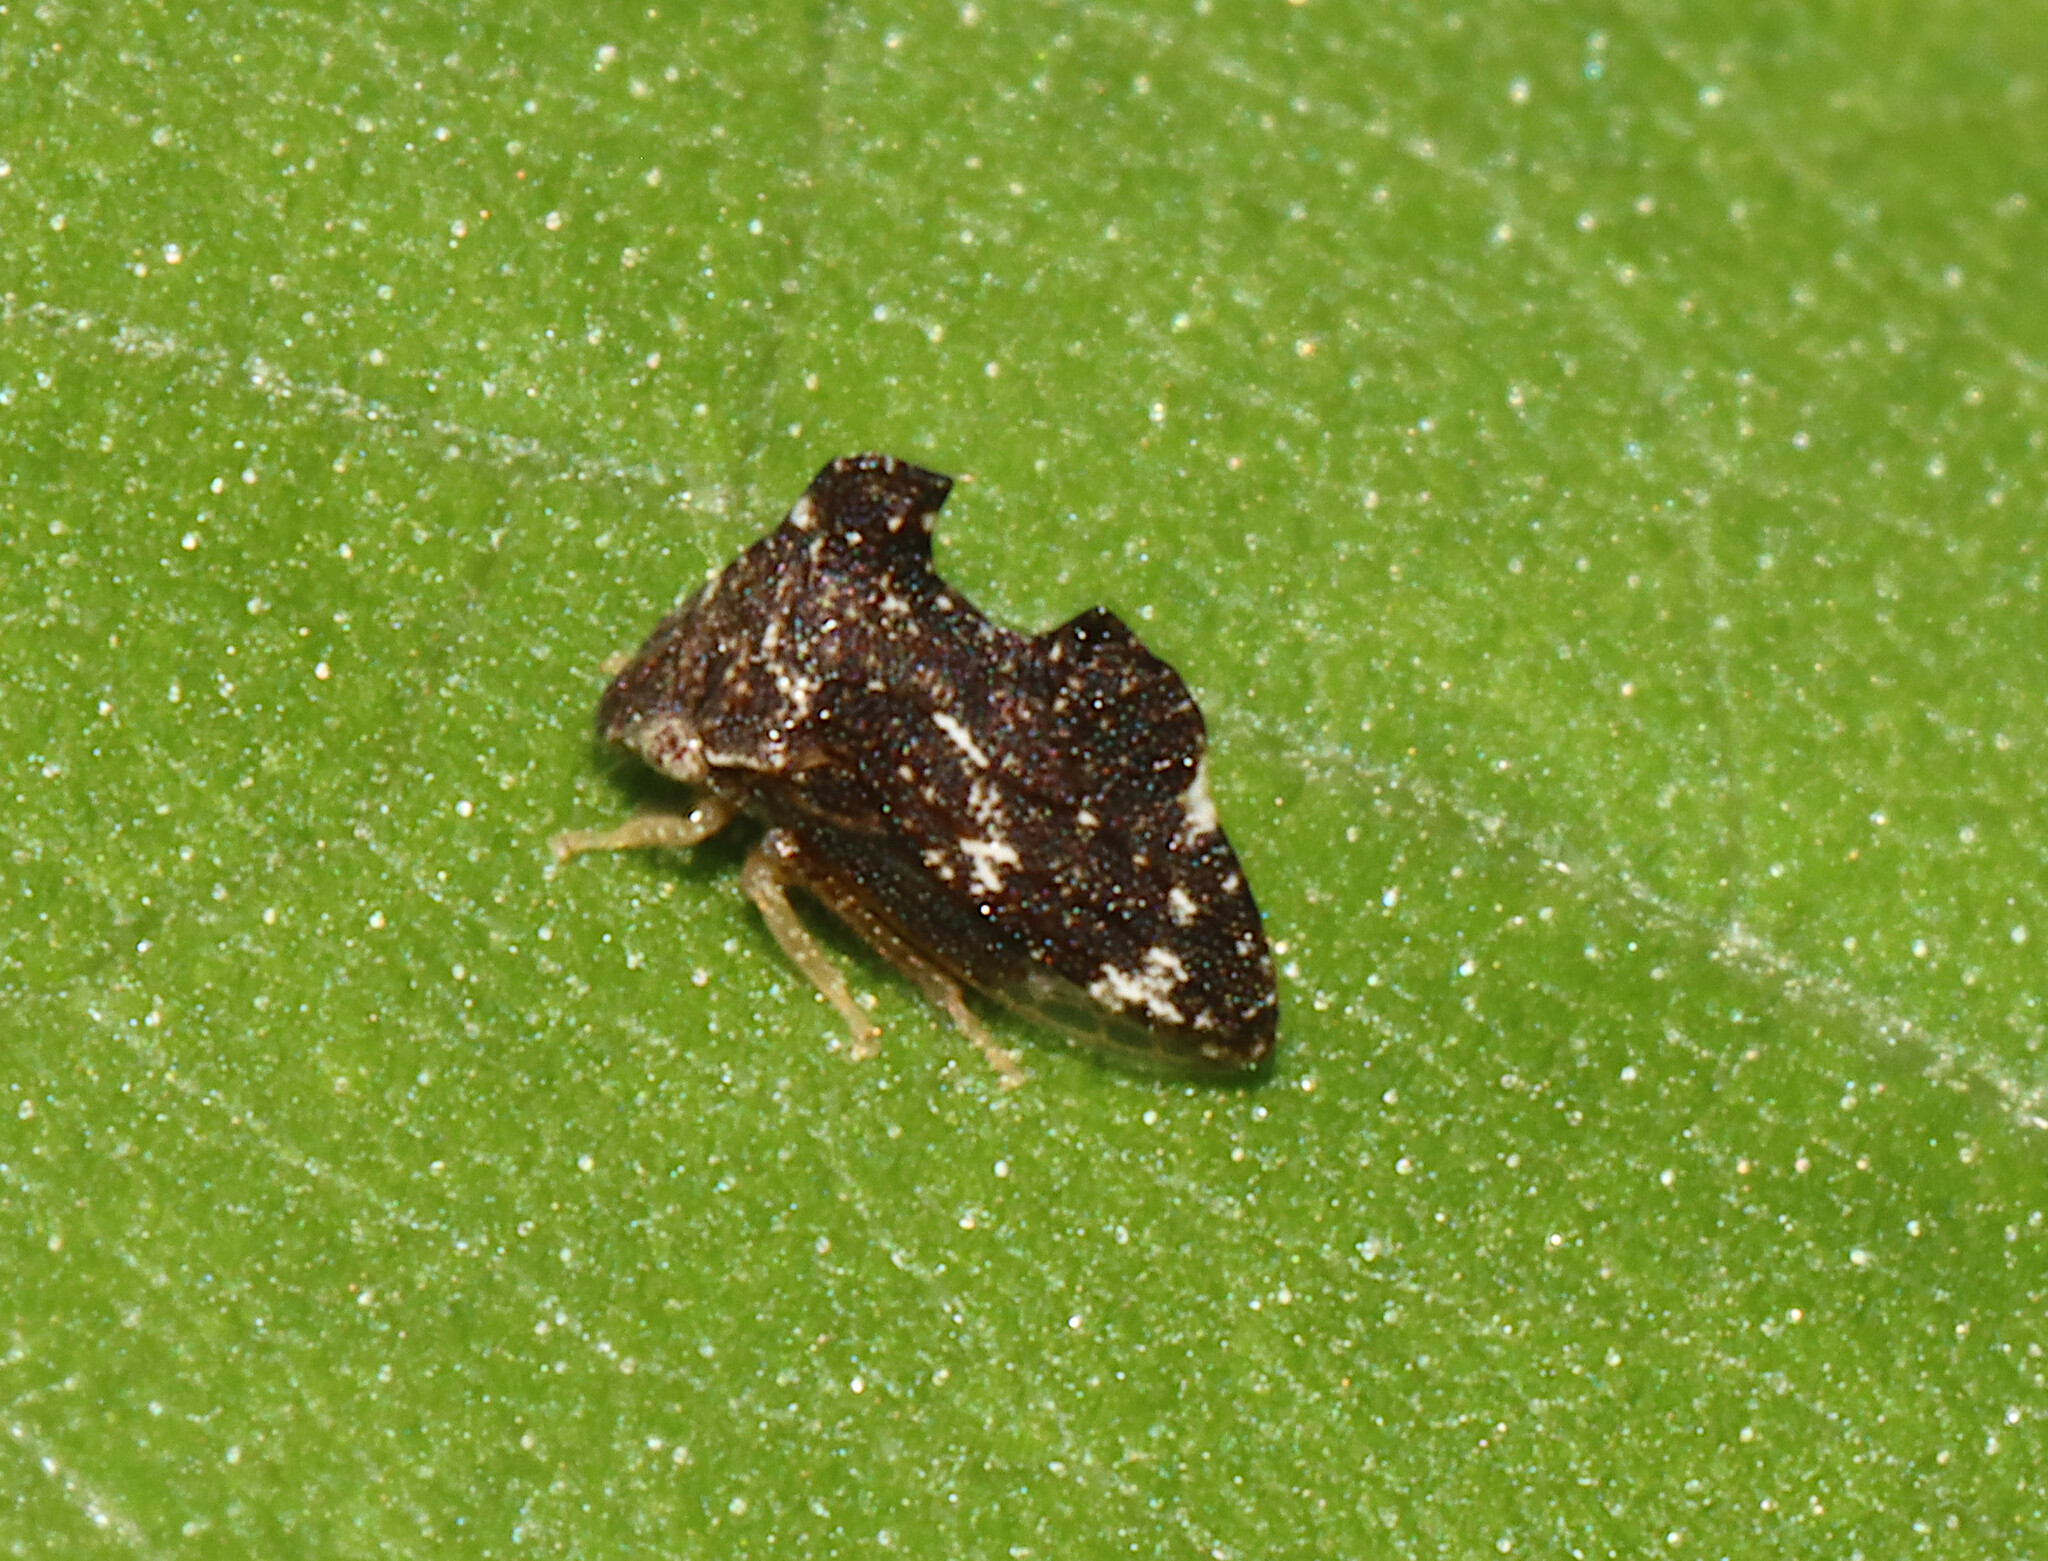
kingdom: Animalia
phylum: Arthropoda
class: Insecta
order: Hemiptera
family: Membracidae
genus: Entylia
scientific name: Entylia carinata
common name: Keeled treehopper
